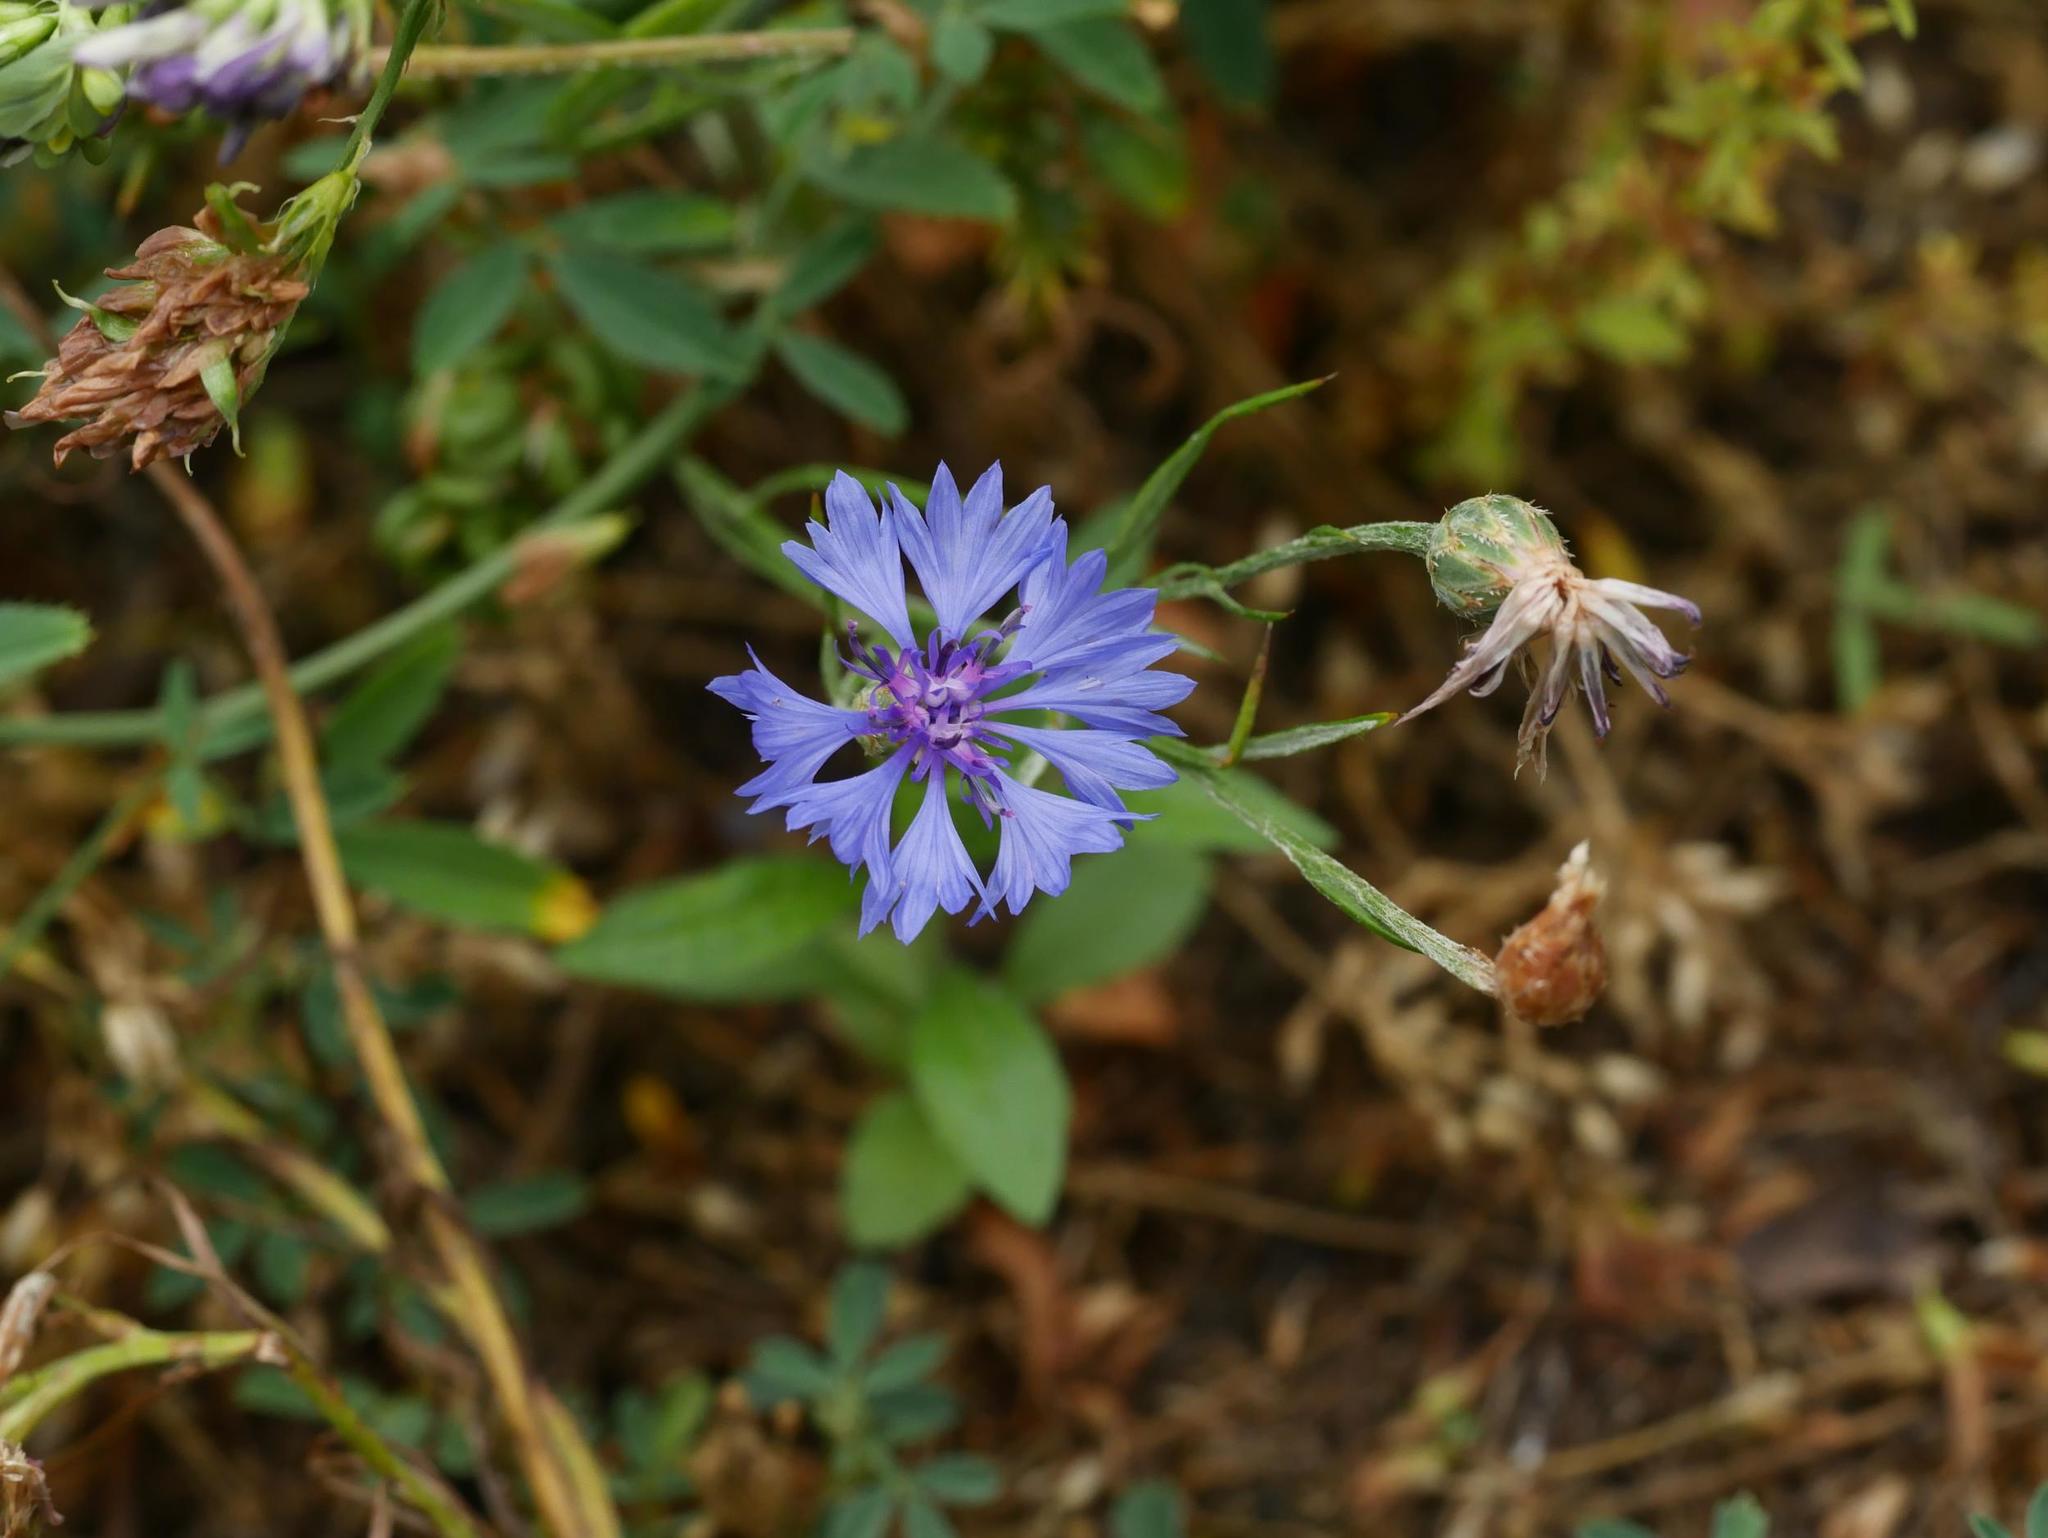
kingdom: Plantae
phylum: Tracheophyta
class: Magnoliopsida
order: Asterales
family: Asteraceae
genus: Centaurea
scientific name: Centaurea cyanus
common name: Cornflower
